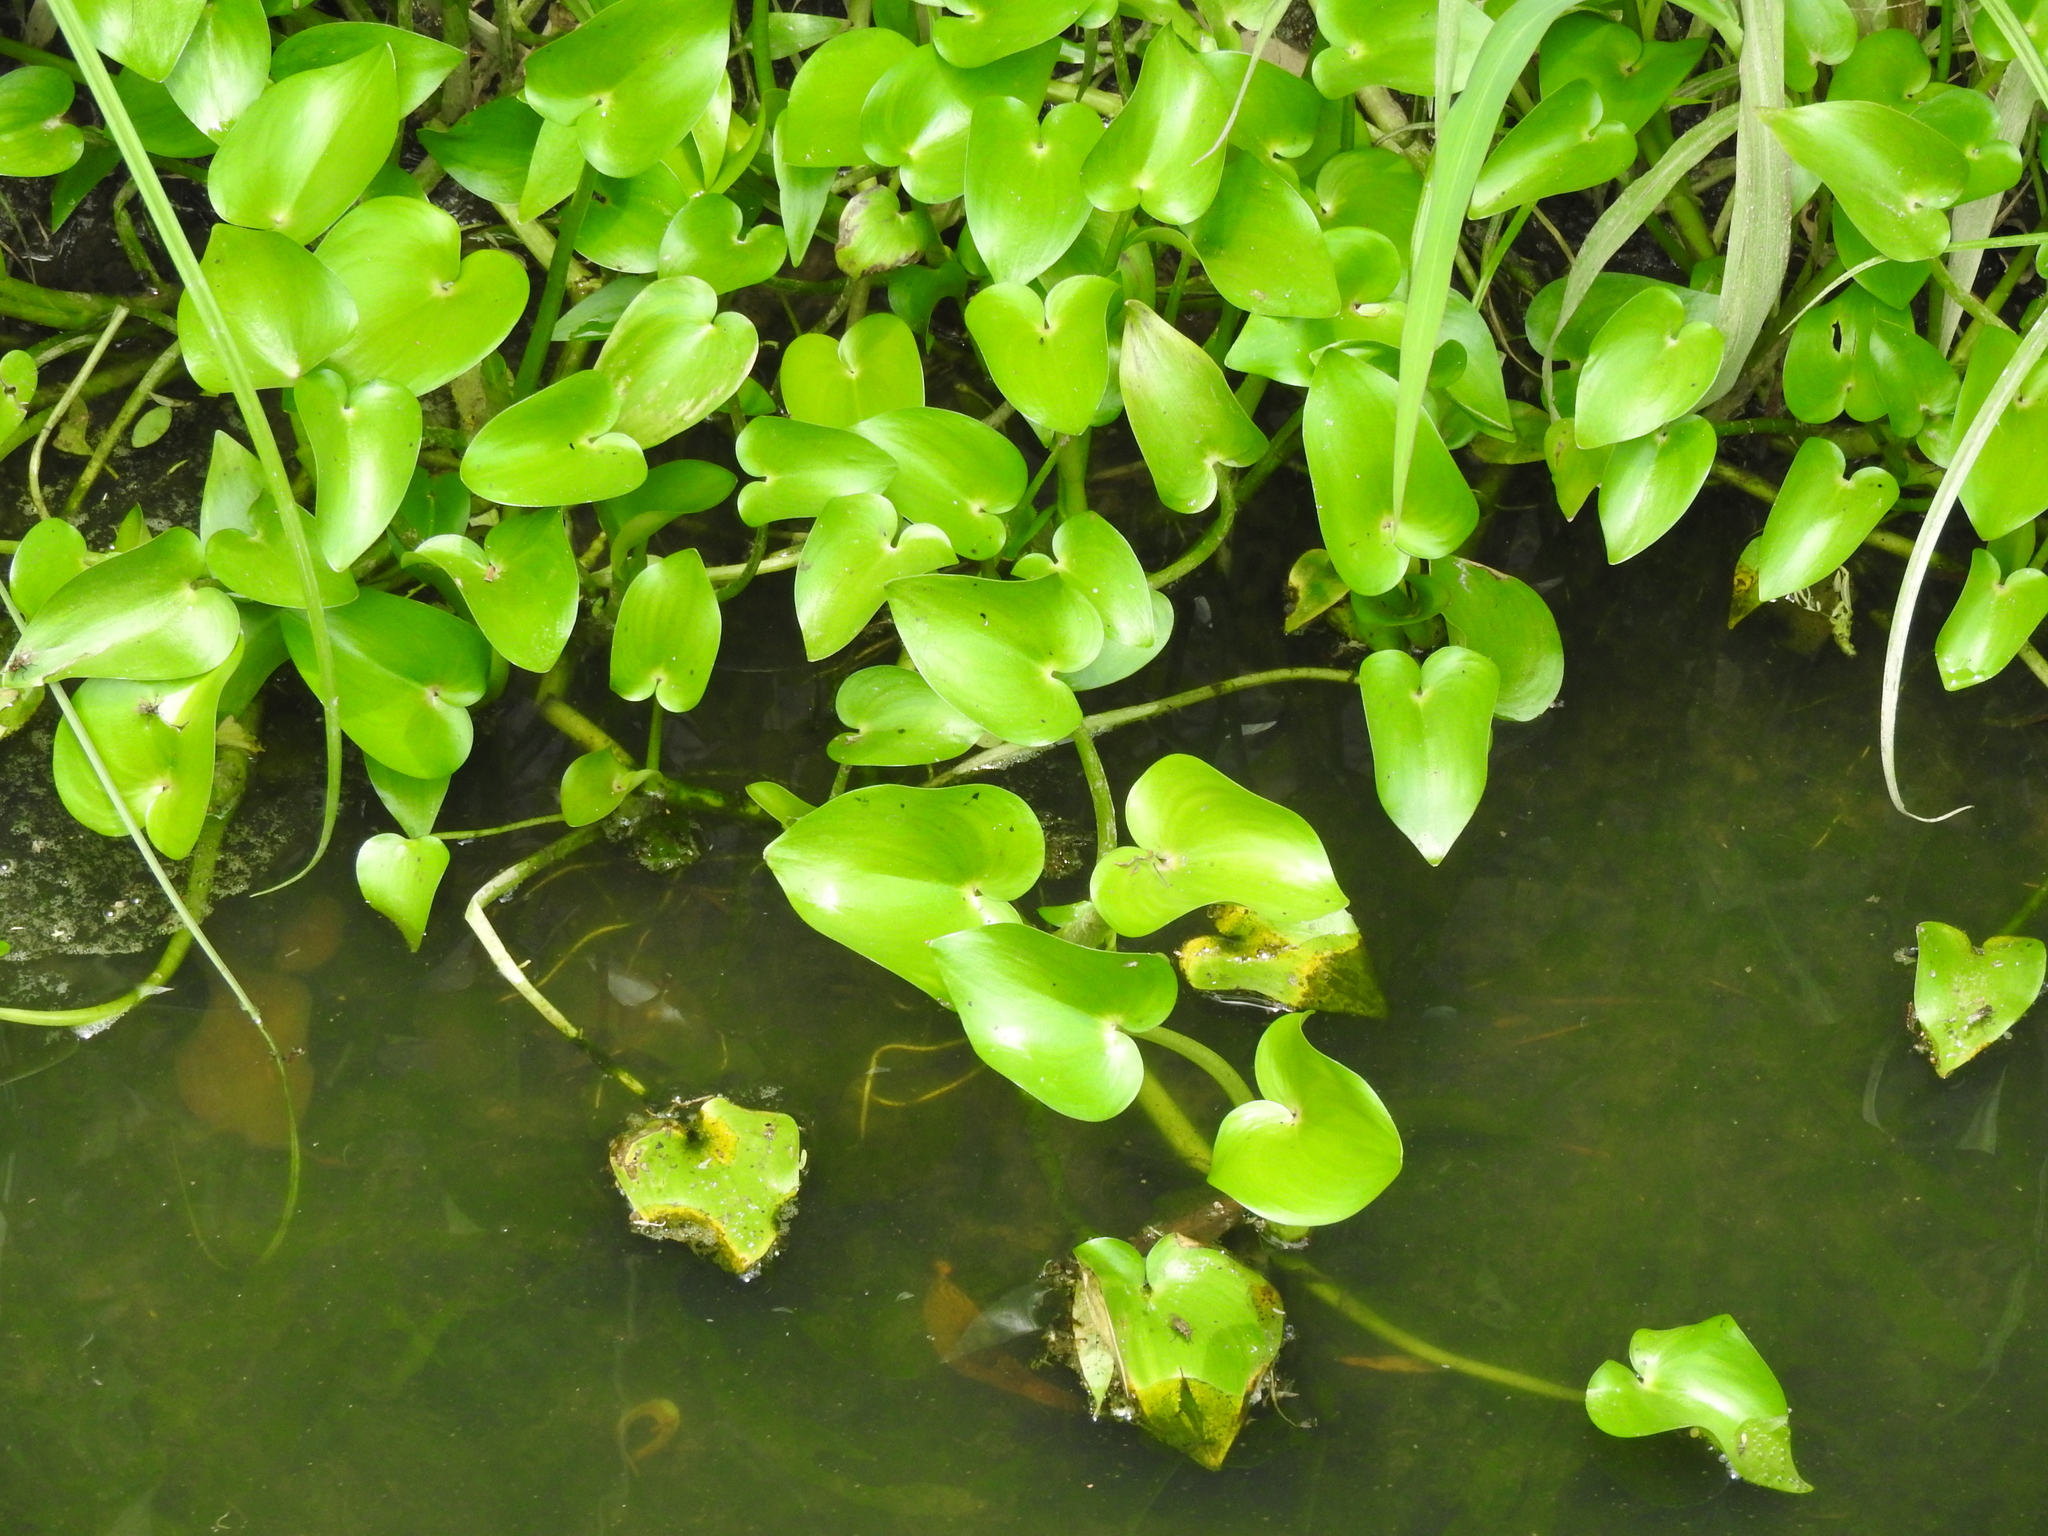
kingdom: Plantae
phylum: Tracheophyta
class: Liliopsida
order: Commelinales
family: Pontederiaceae
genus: Heteranthera
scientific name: Heteranthera peduncularis
